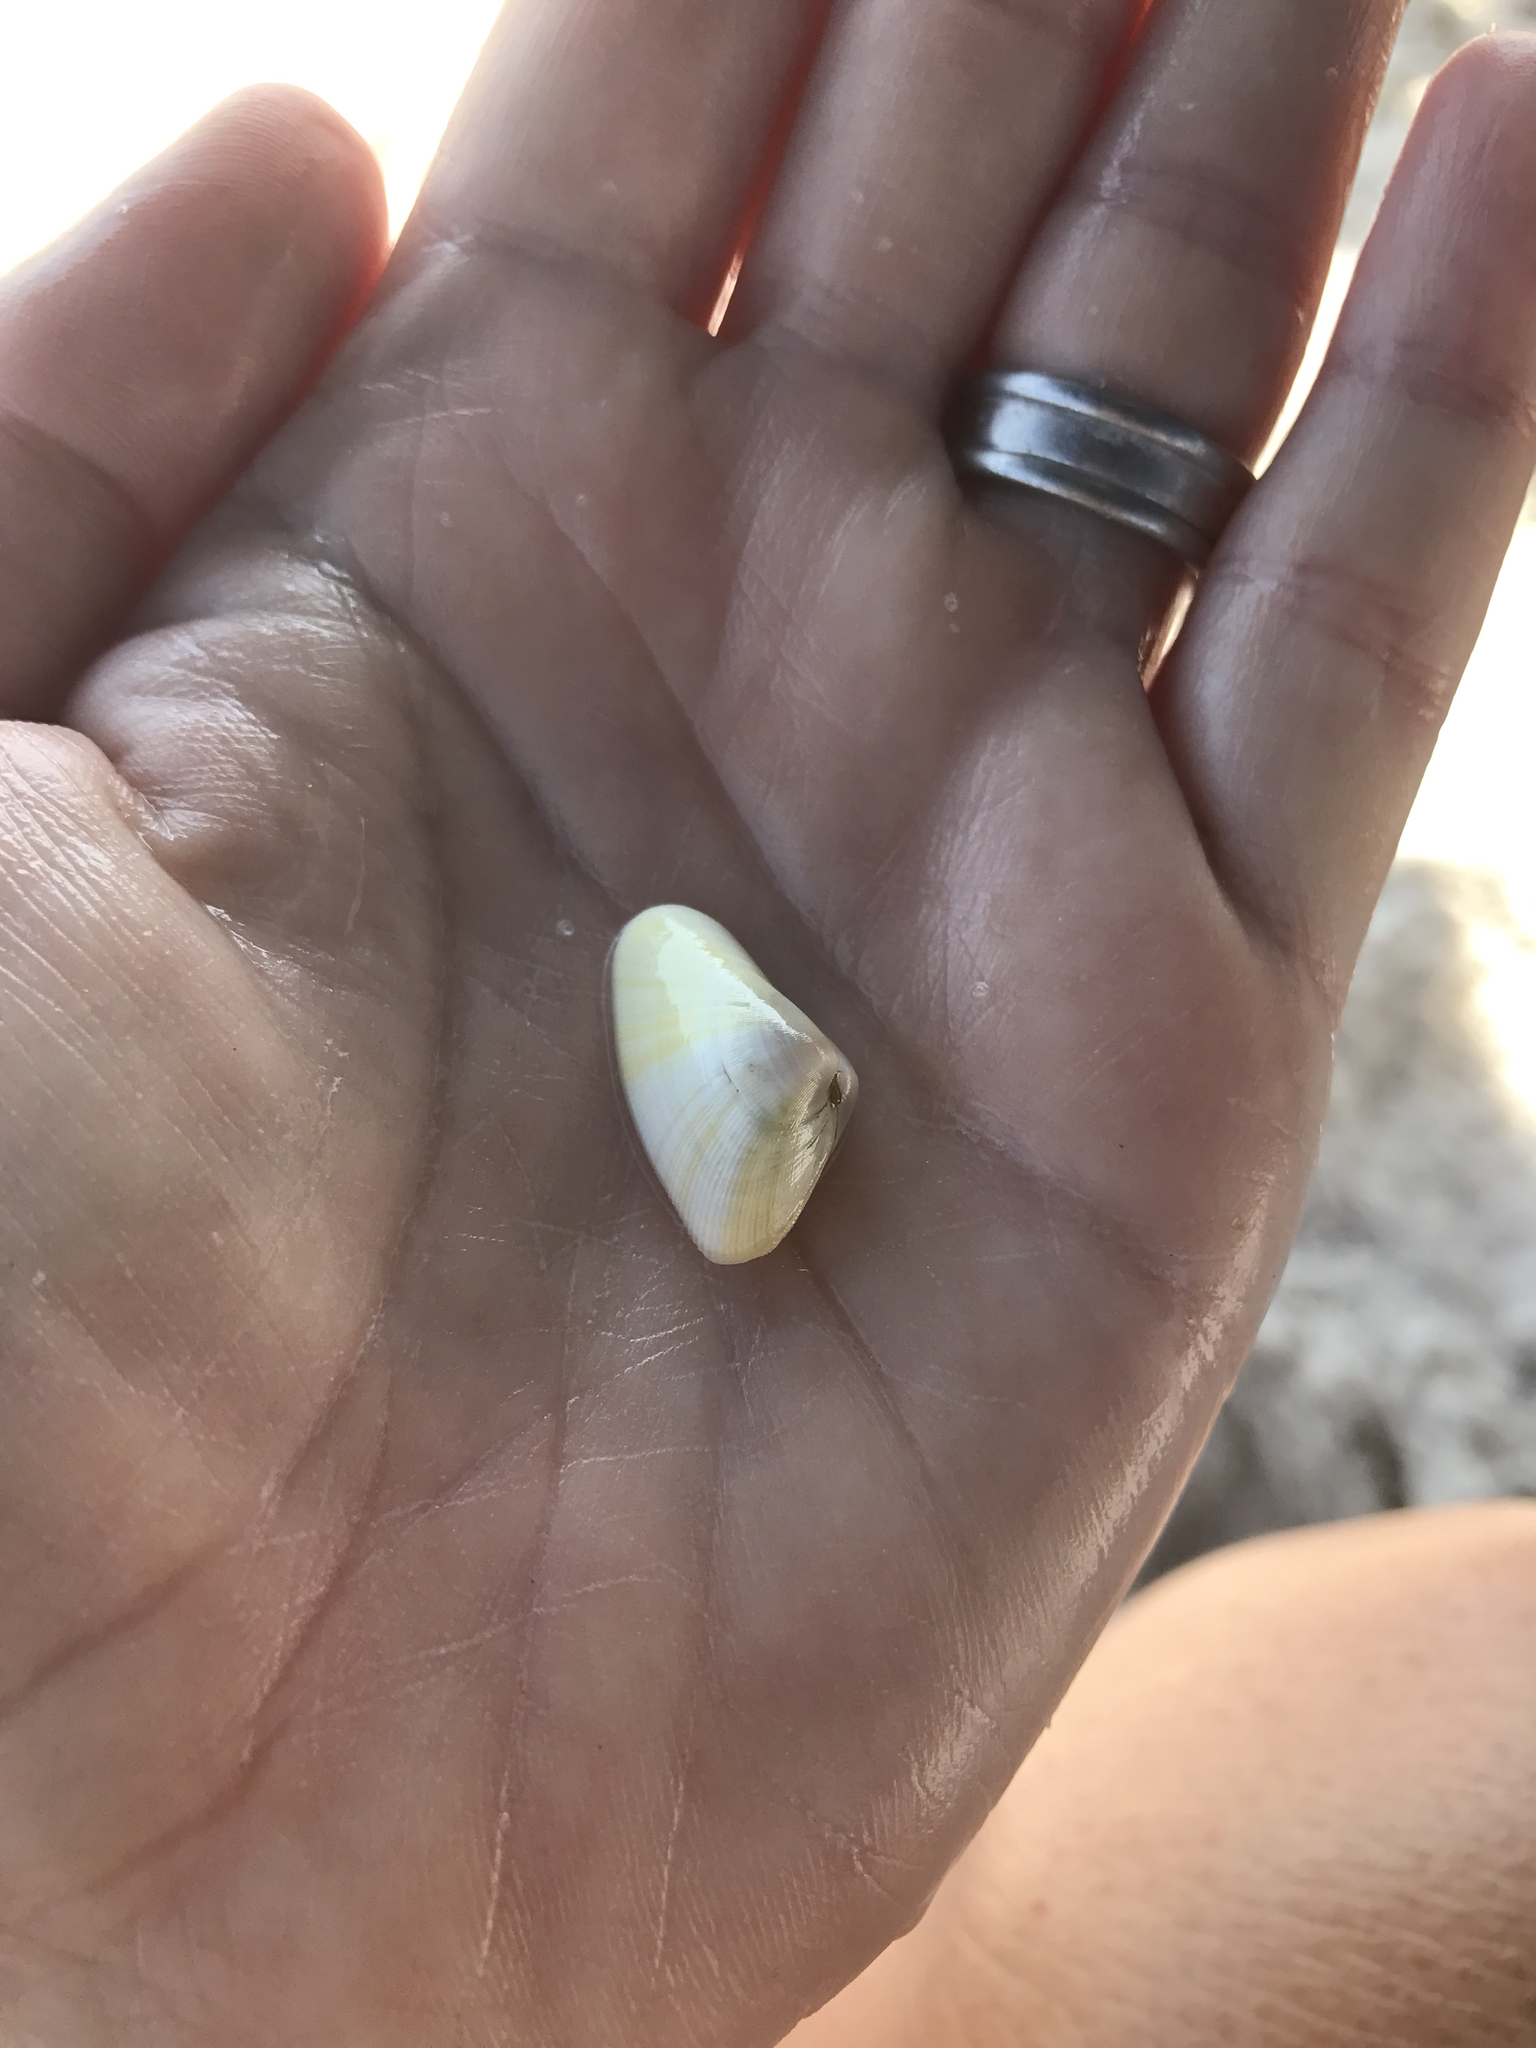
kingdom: Animalia
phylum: Mollusca
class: Bivalvia
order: Cardiida
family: Donacidae
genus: Donax
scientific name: Donax variabilis
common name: Butterfly shell
